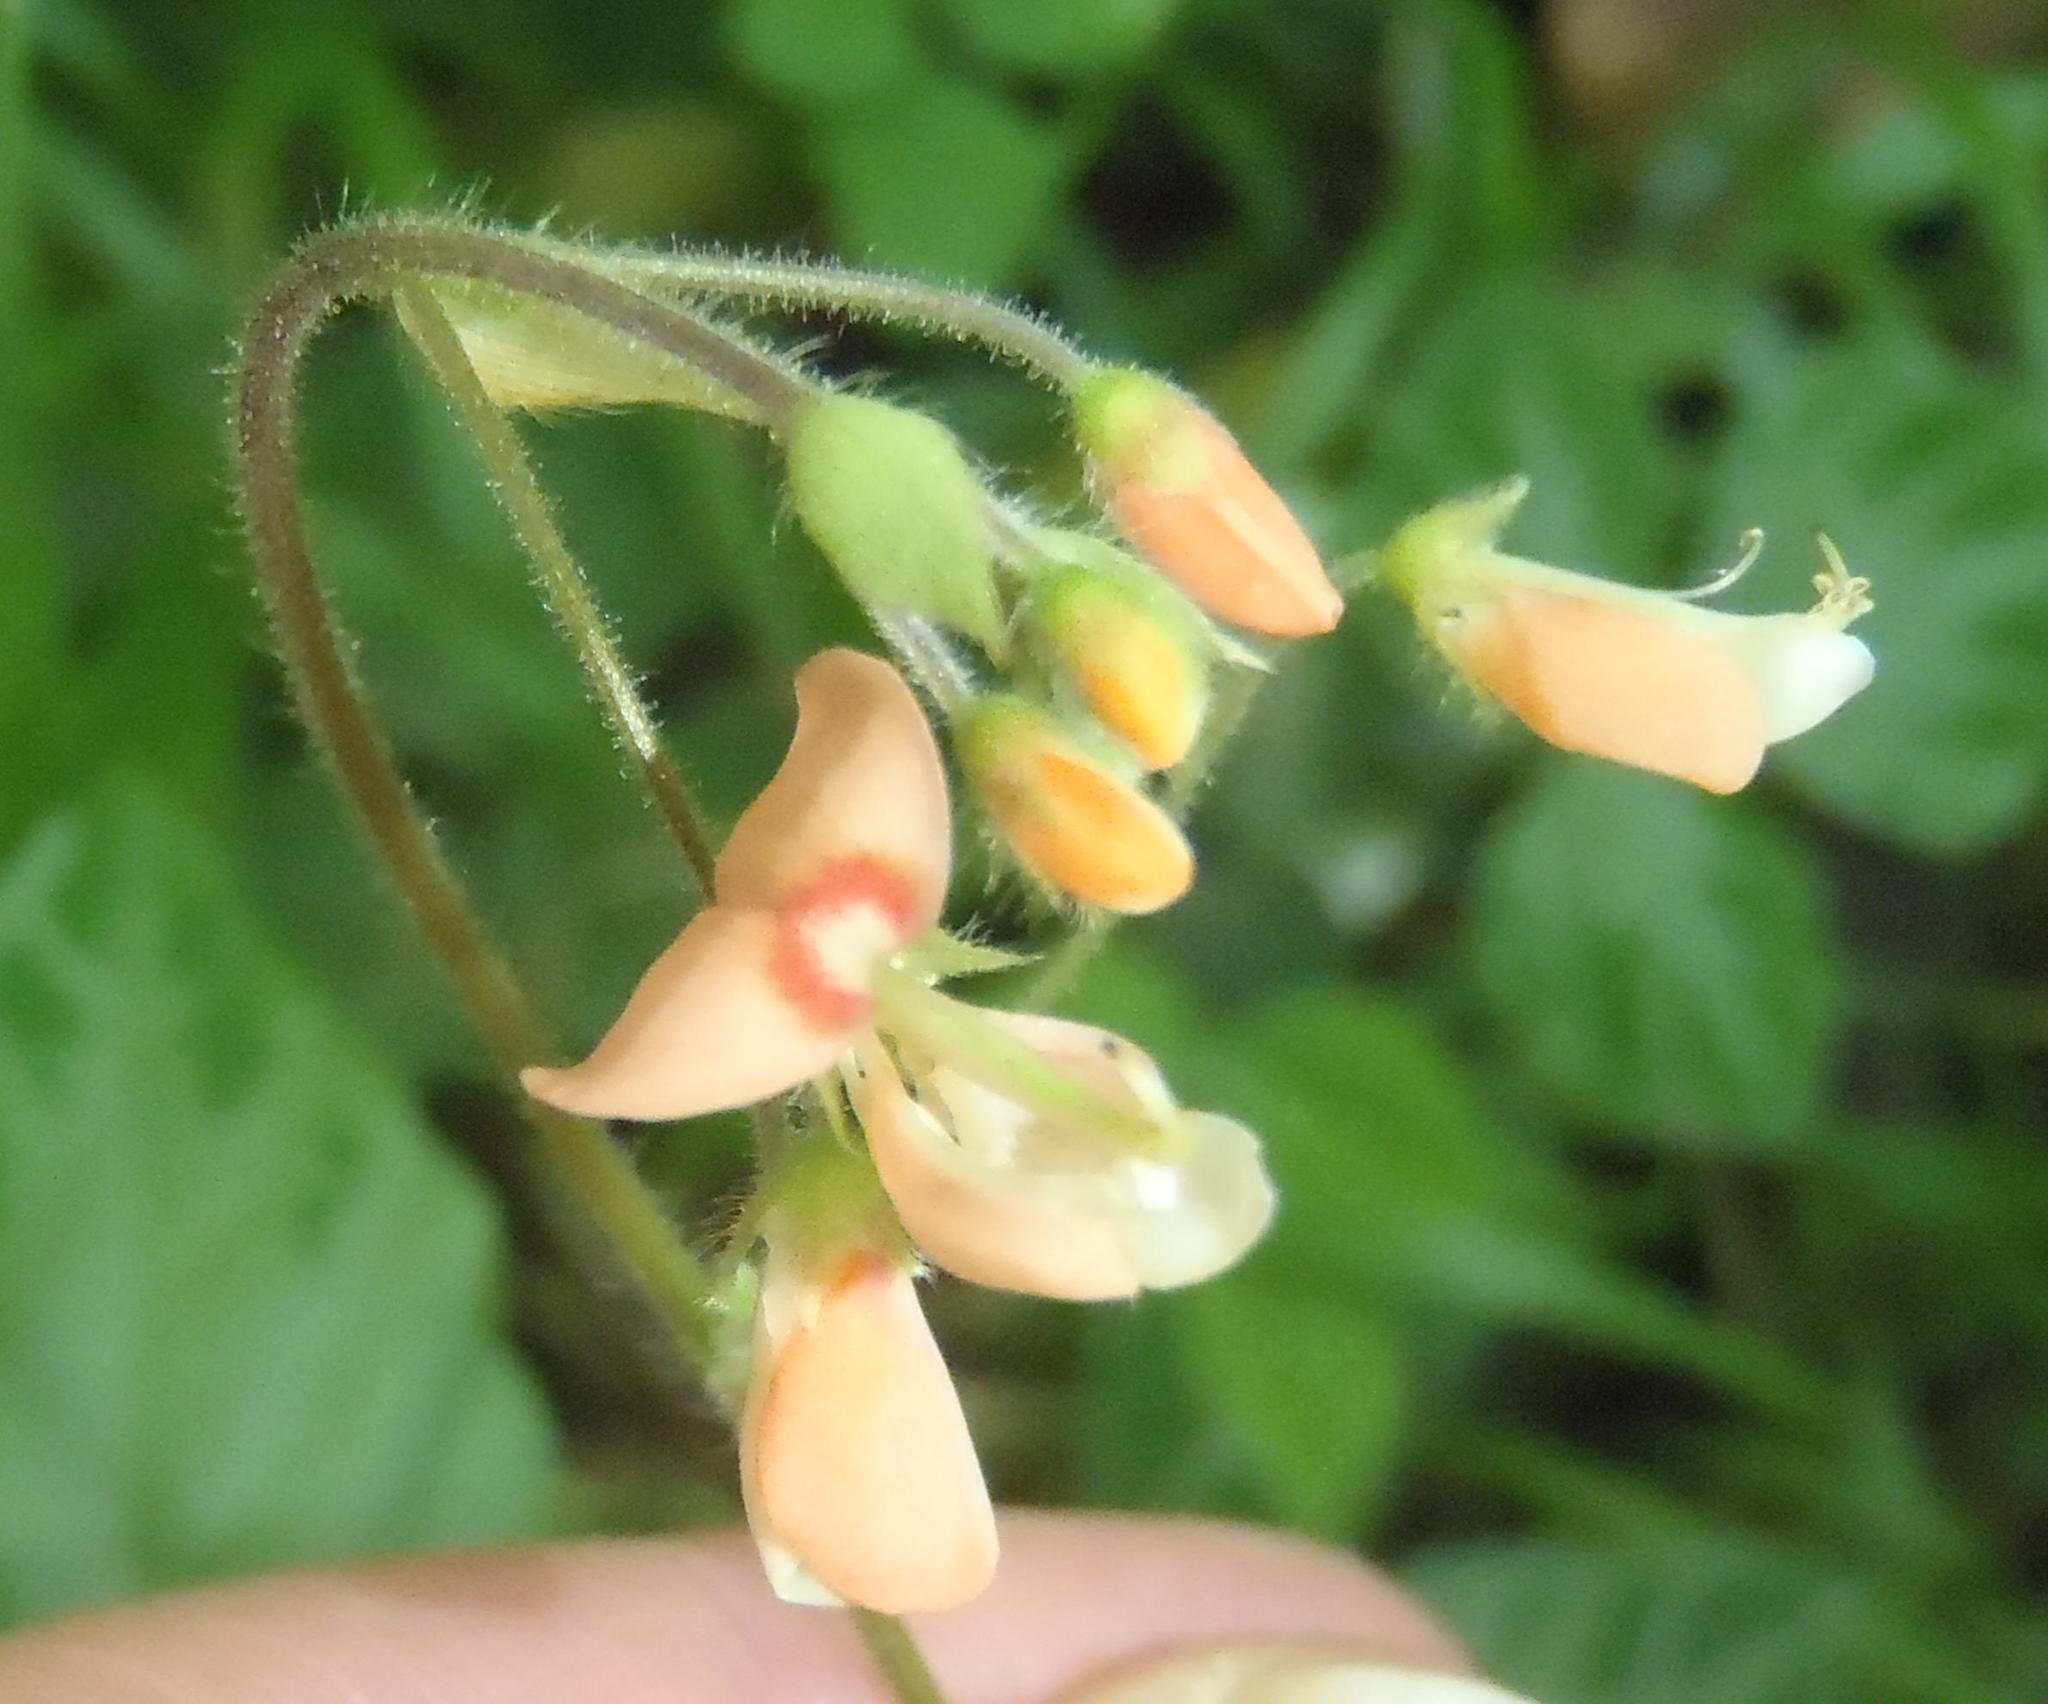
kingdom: Plantae
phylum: Tracheophyta
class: Magnoliopsida
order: Fabales
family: Fabaceae
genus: Hylodesmum
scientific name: Hylodesmum repandum
